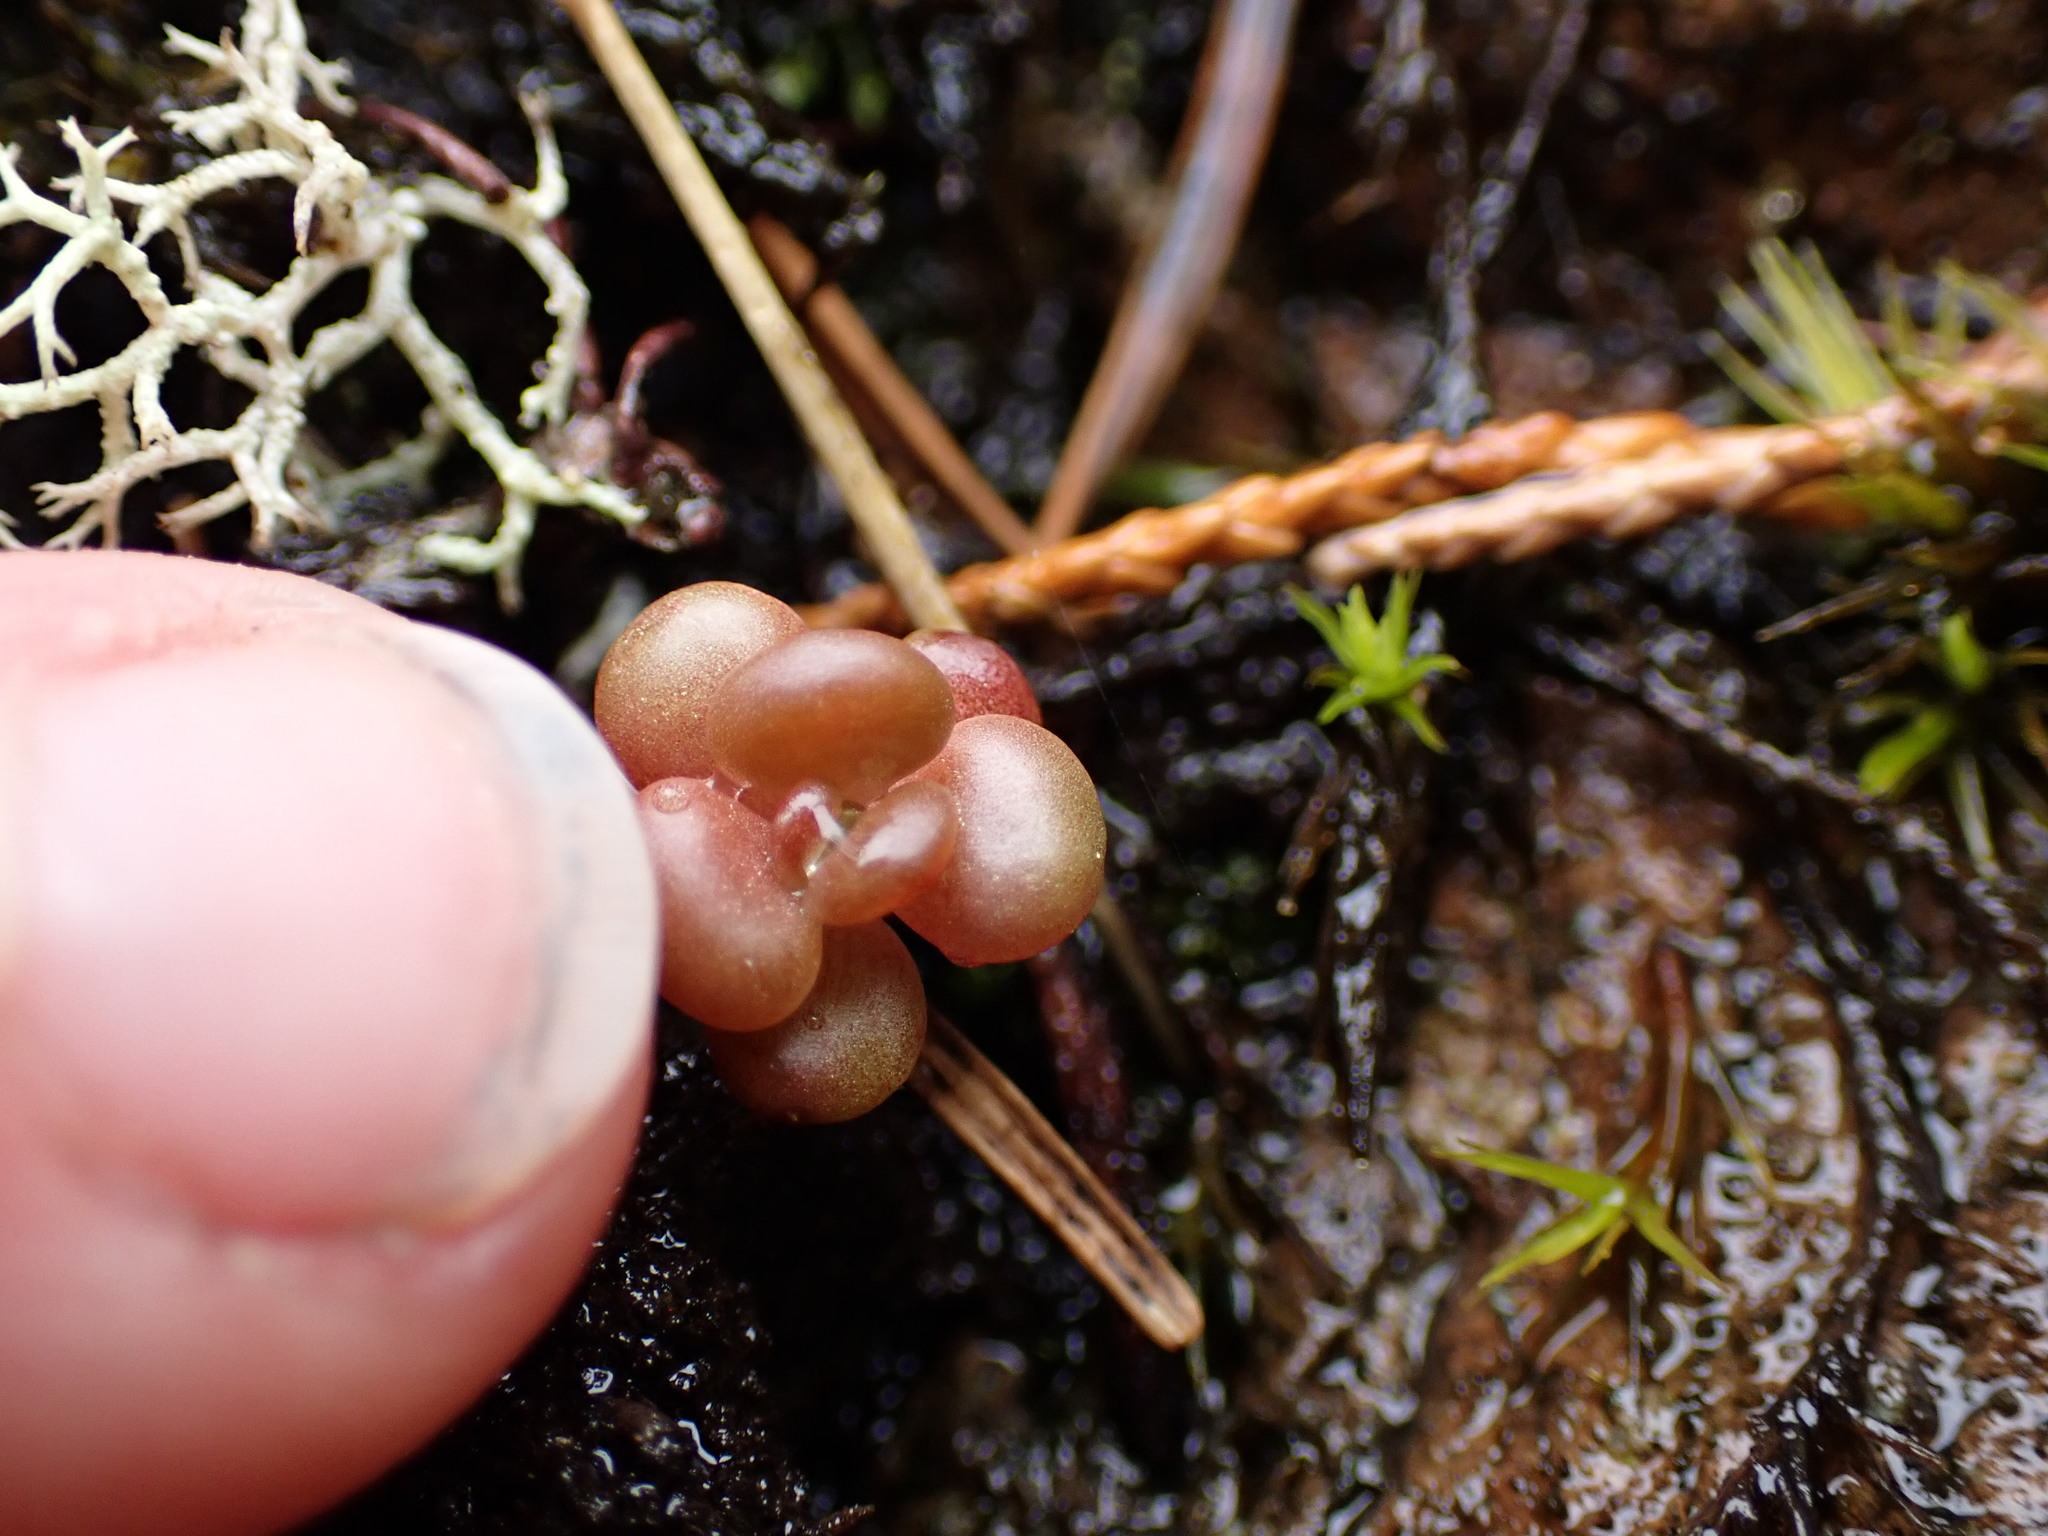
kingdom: Plantae
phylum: Tracheophyta
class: Magnoliopsida
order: Saxifragales
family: Crassulaceae
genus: Sedum
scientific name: Sedum oreganum
